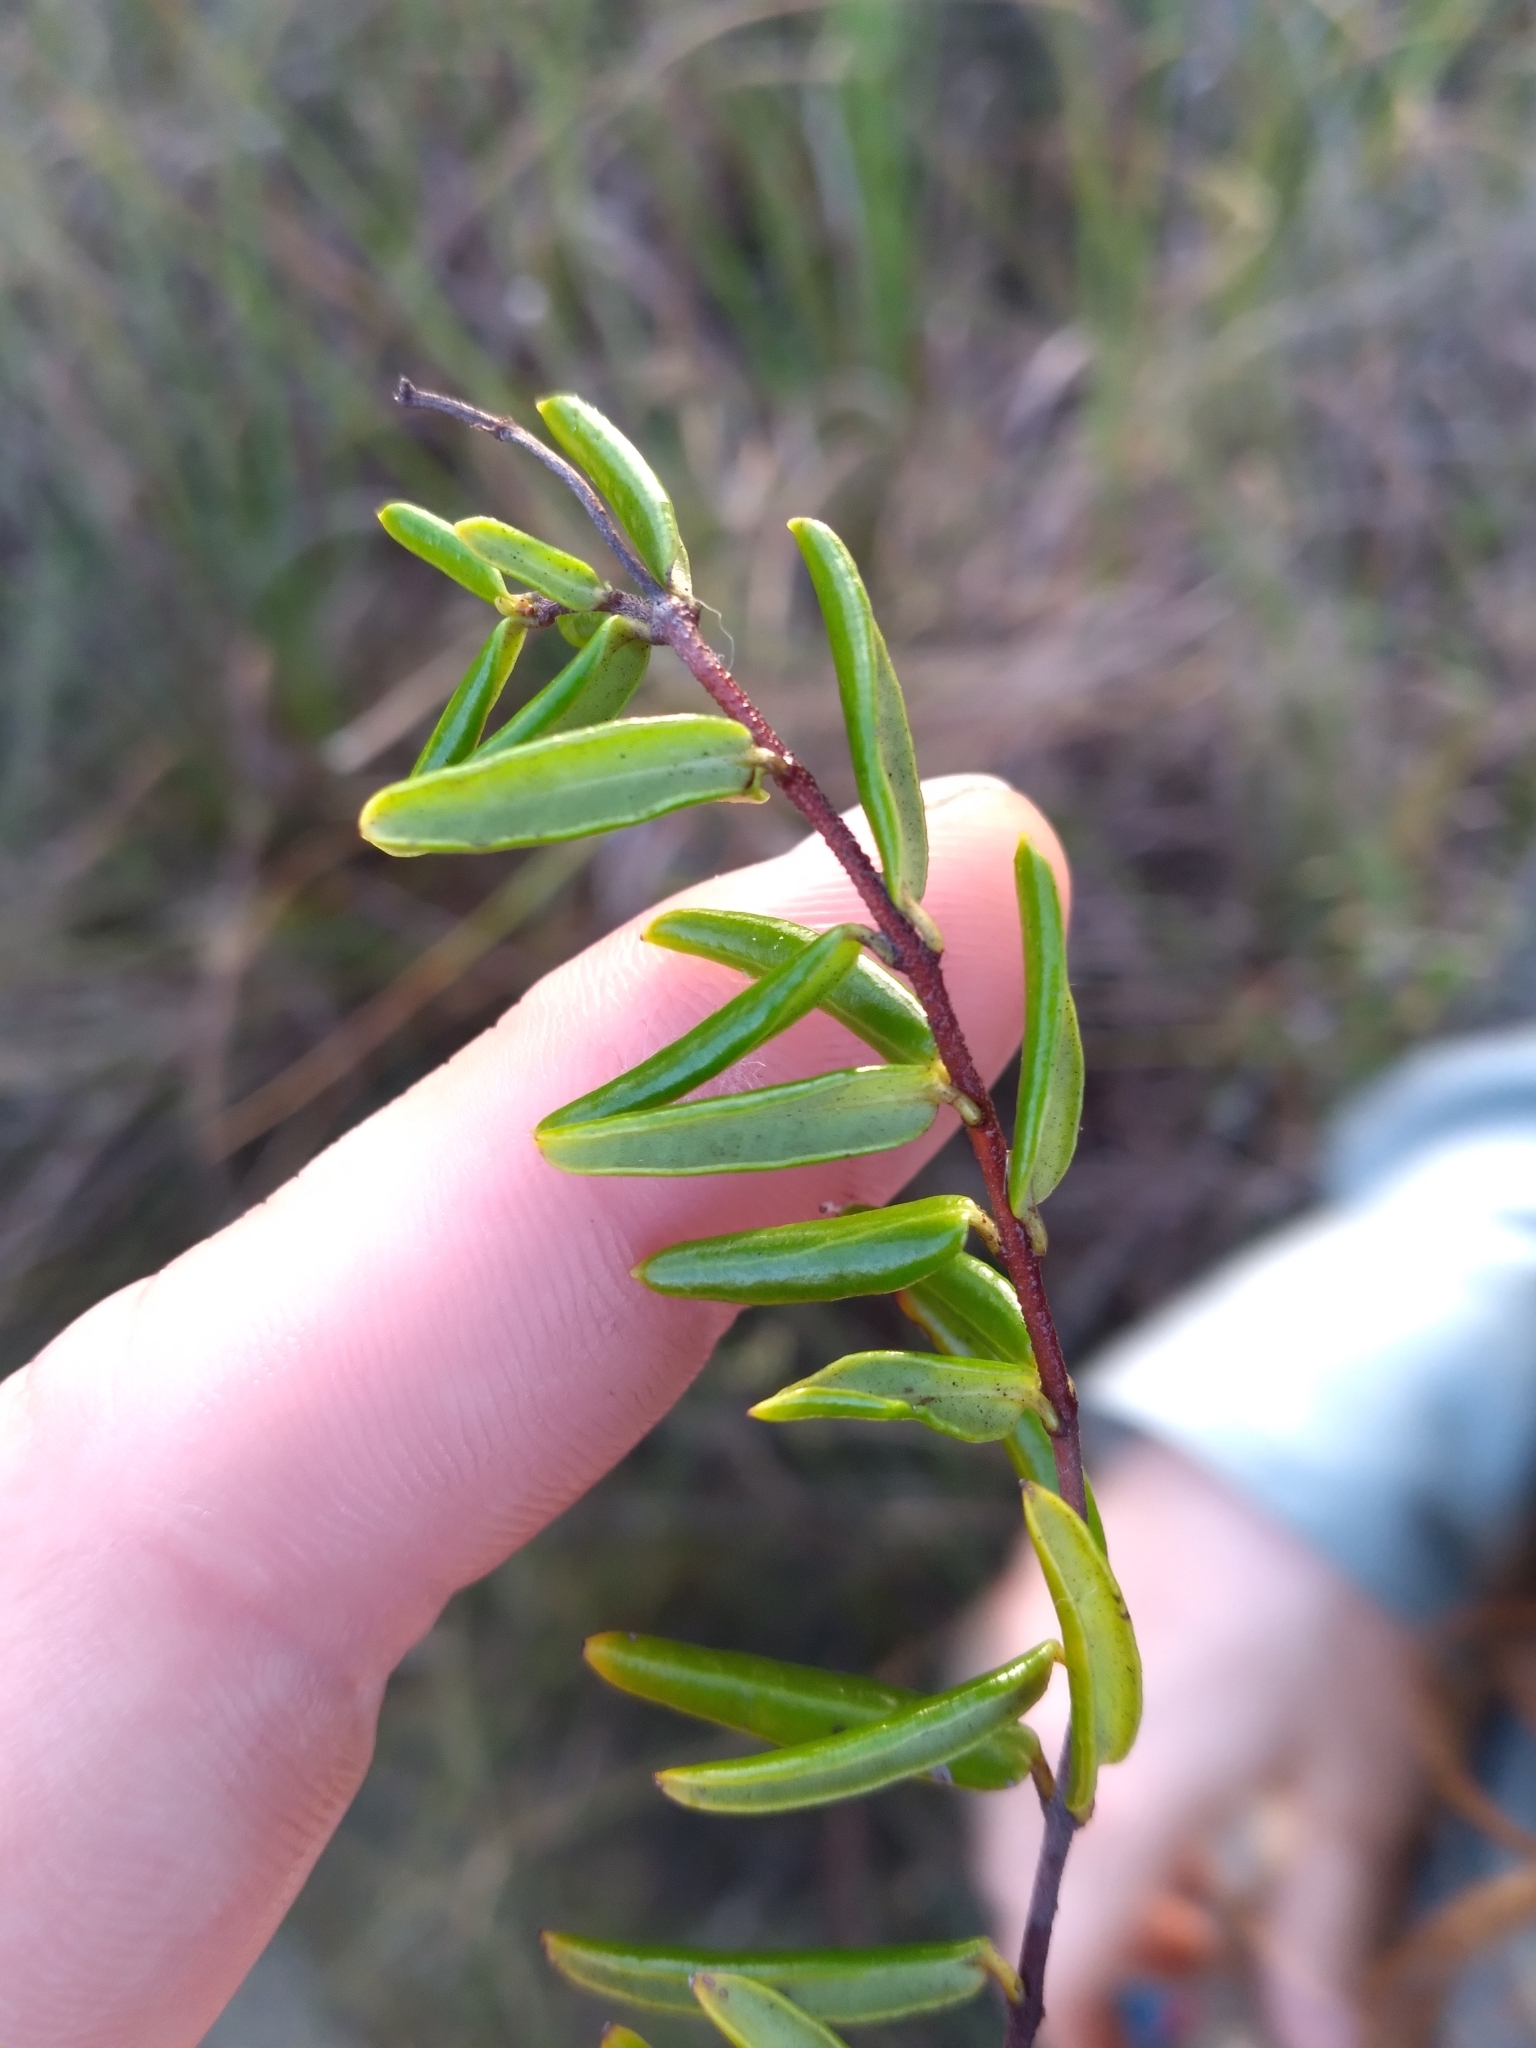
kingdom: Plantae
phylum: Tracheophyta
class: Magnoliopsida
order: Gentianales
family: Apocynaceae
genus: Angadenia
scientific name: Angadenia berteroi
